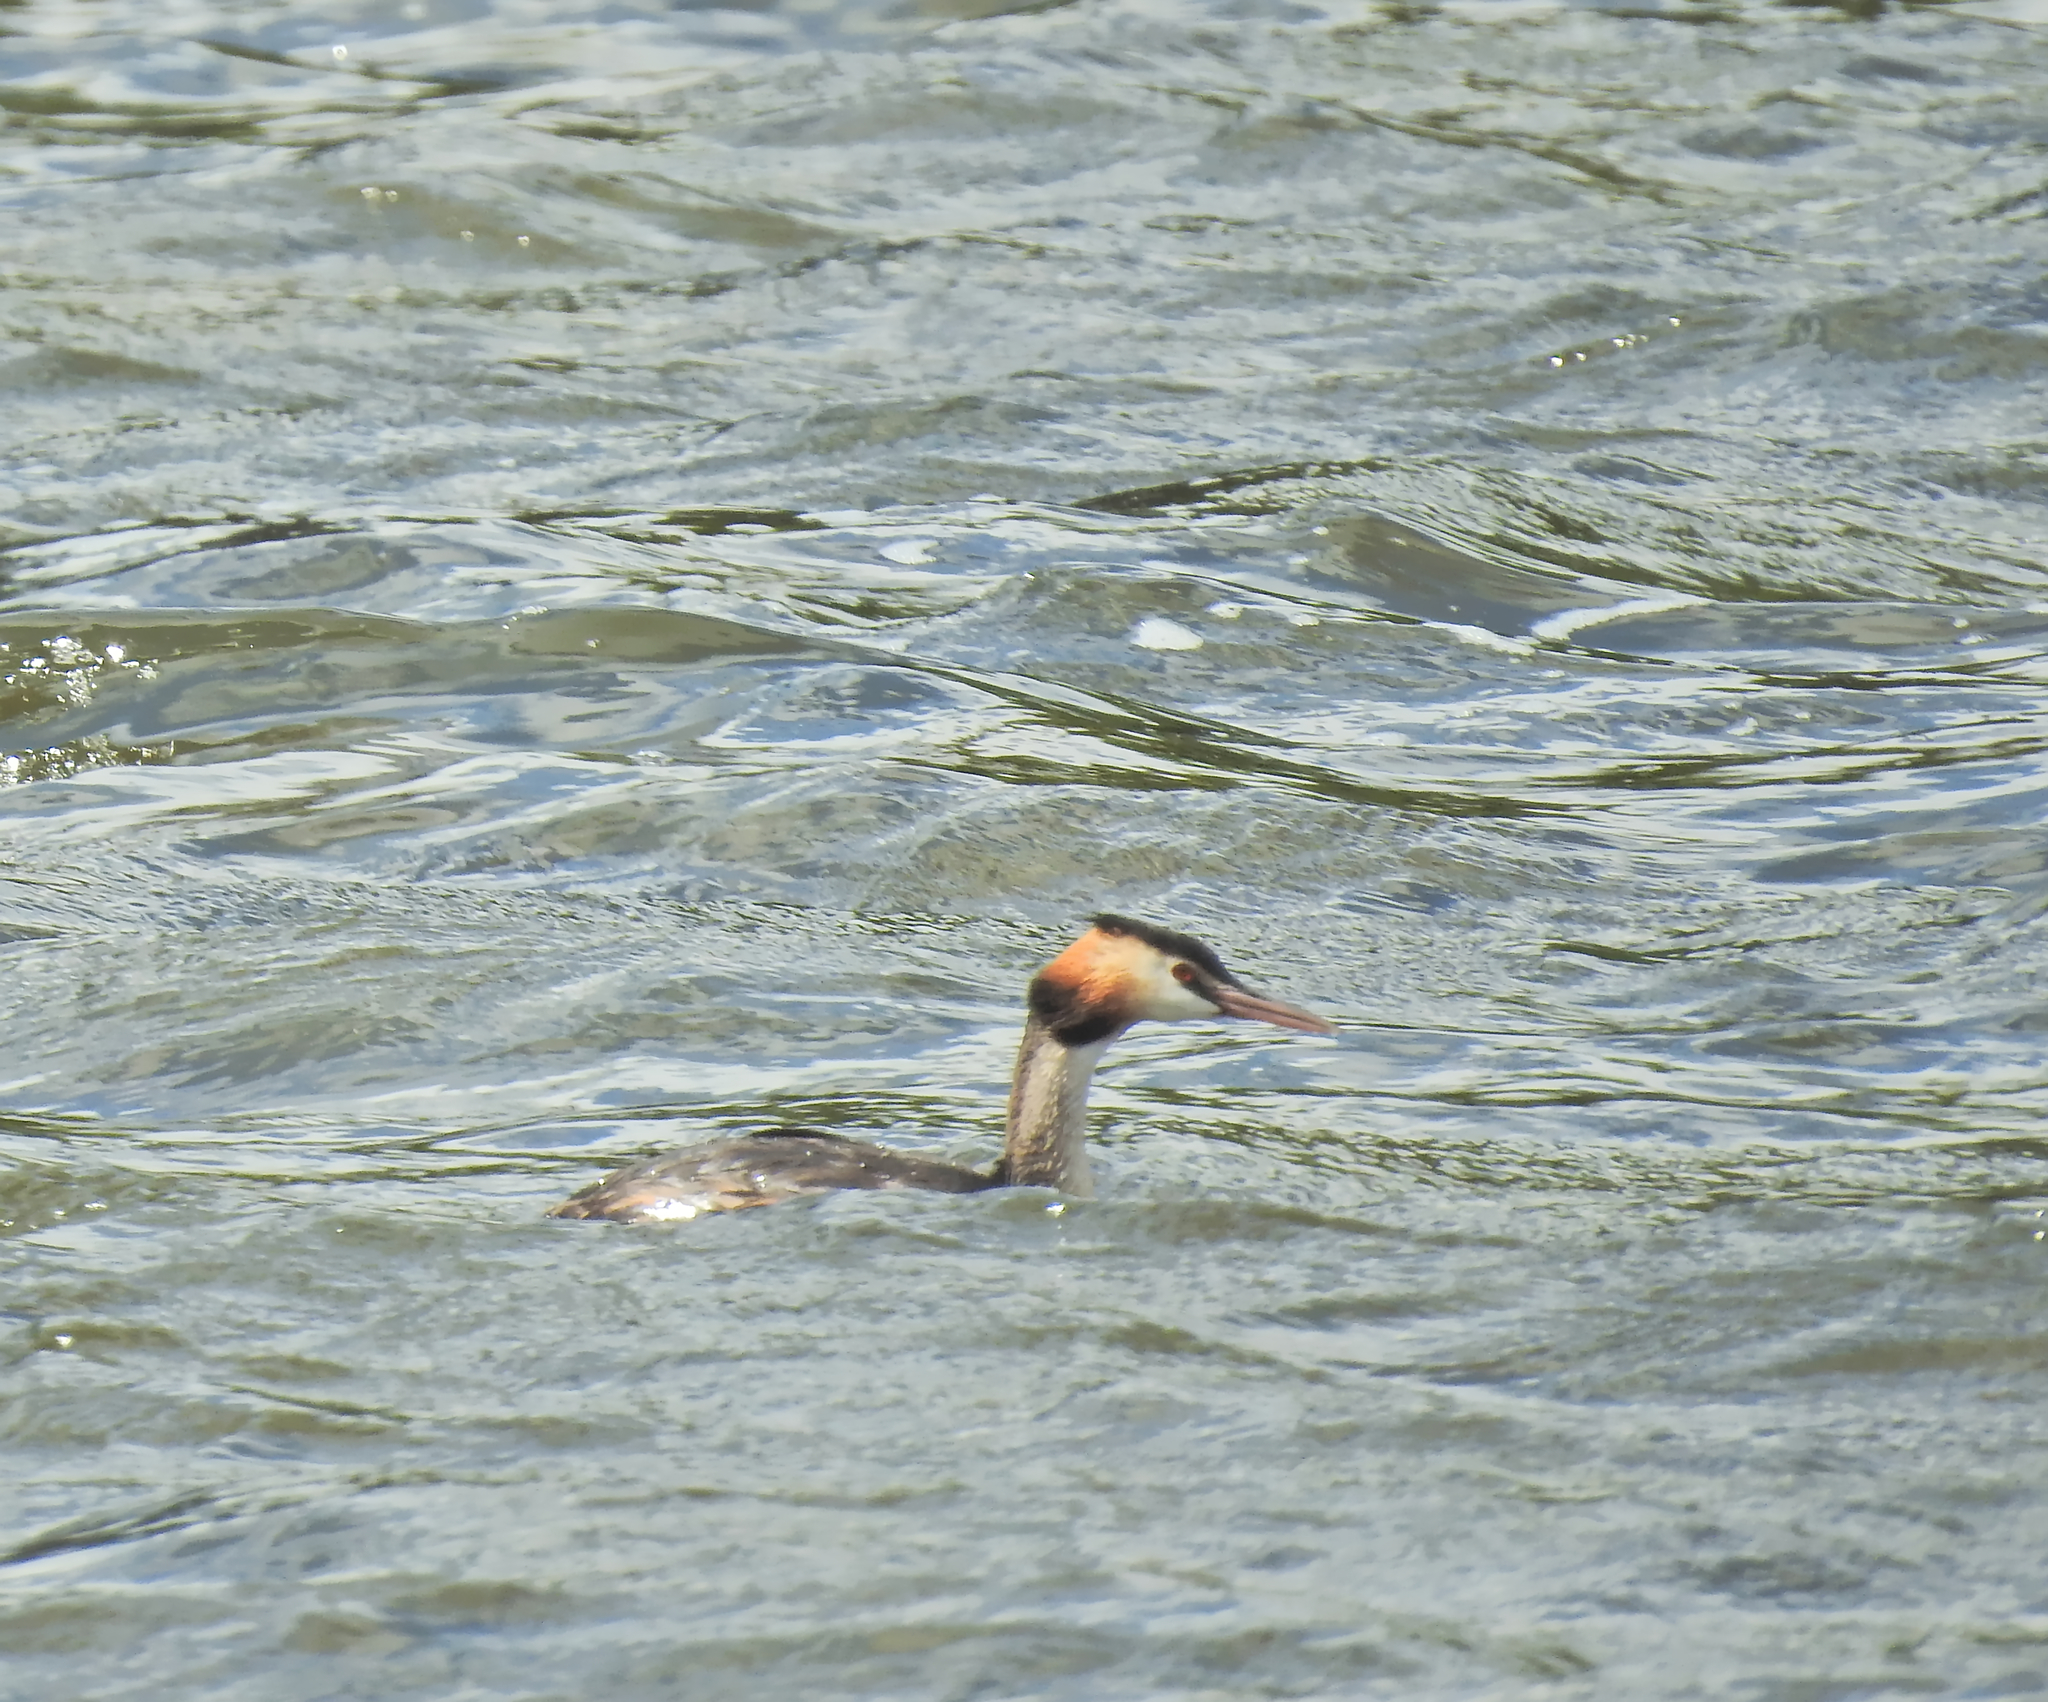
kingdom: Animalia
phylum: Chordata
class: Aves
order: Podicipediformes
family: Podicipedidae
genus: Podiceps
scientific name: Podiceps cristatus
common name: Great crested grebe
